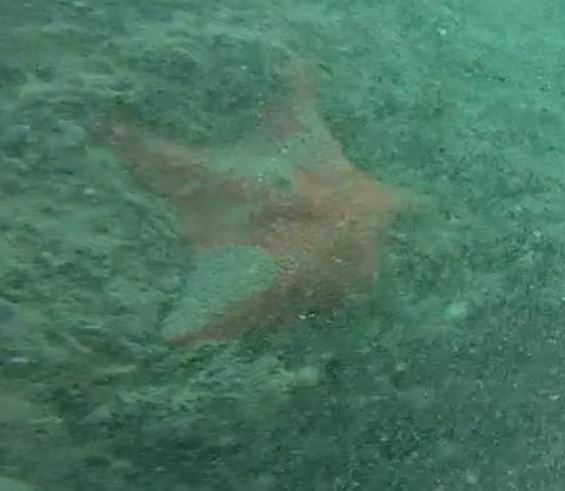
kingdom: Animalia
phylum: Echinodermata
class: Asteroidea
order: Valvatida
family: Asterinidae
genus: Patiria
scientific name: Patiria miniata
